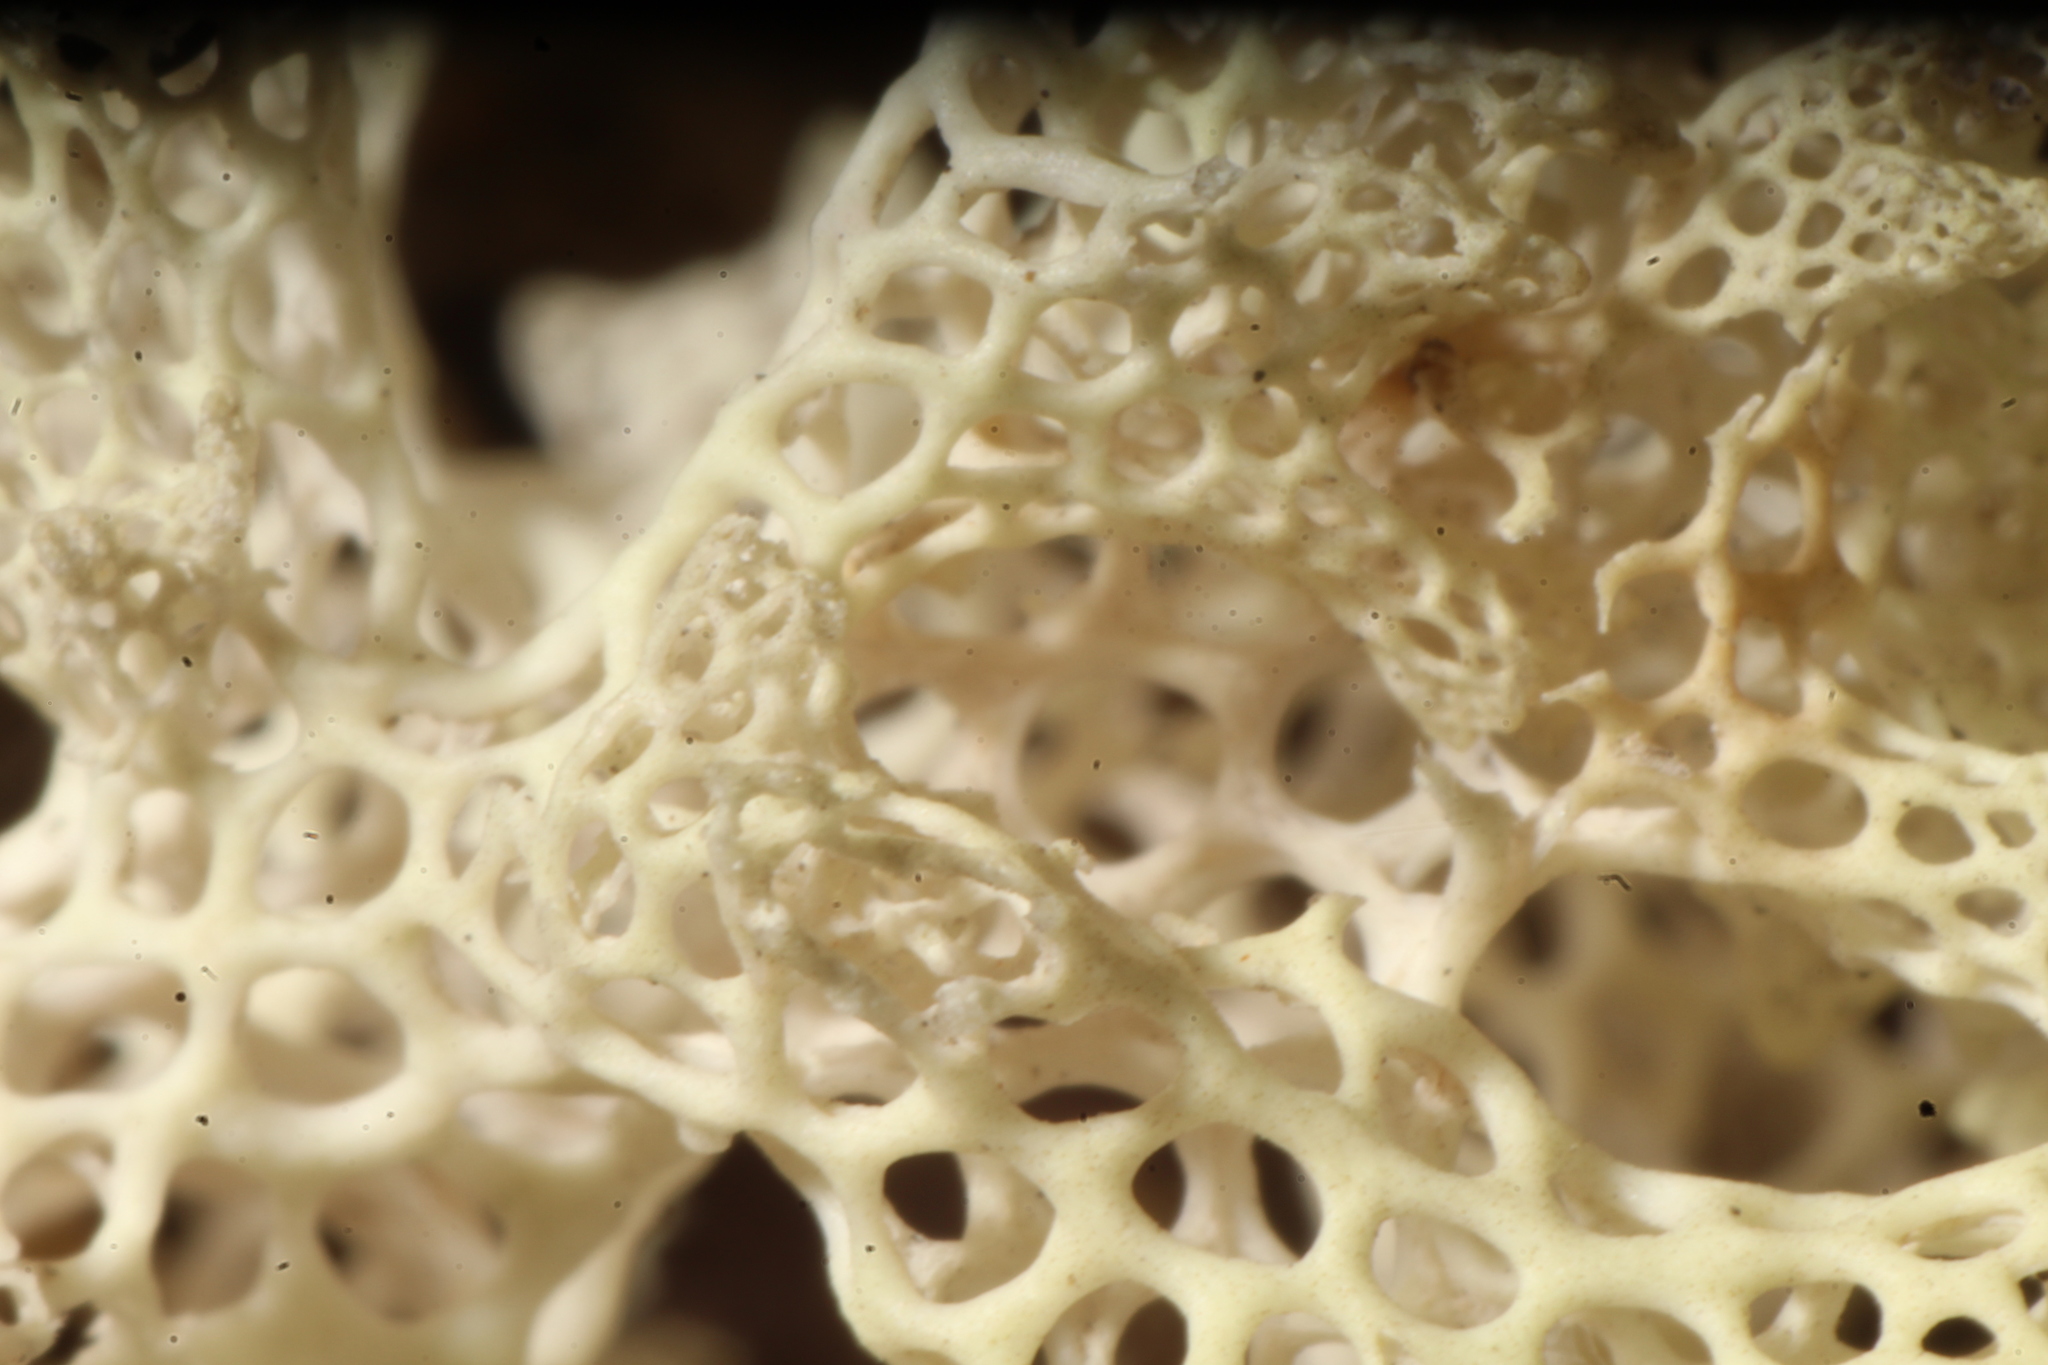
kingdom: Fungi
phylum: Ascomycota
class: Lecanoromycetes
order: Lecanorales
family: Cladoniaceae
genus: Pulchrocladia
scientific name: Pulchrocladia ferdinandii
